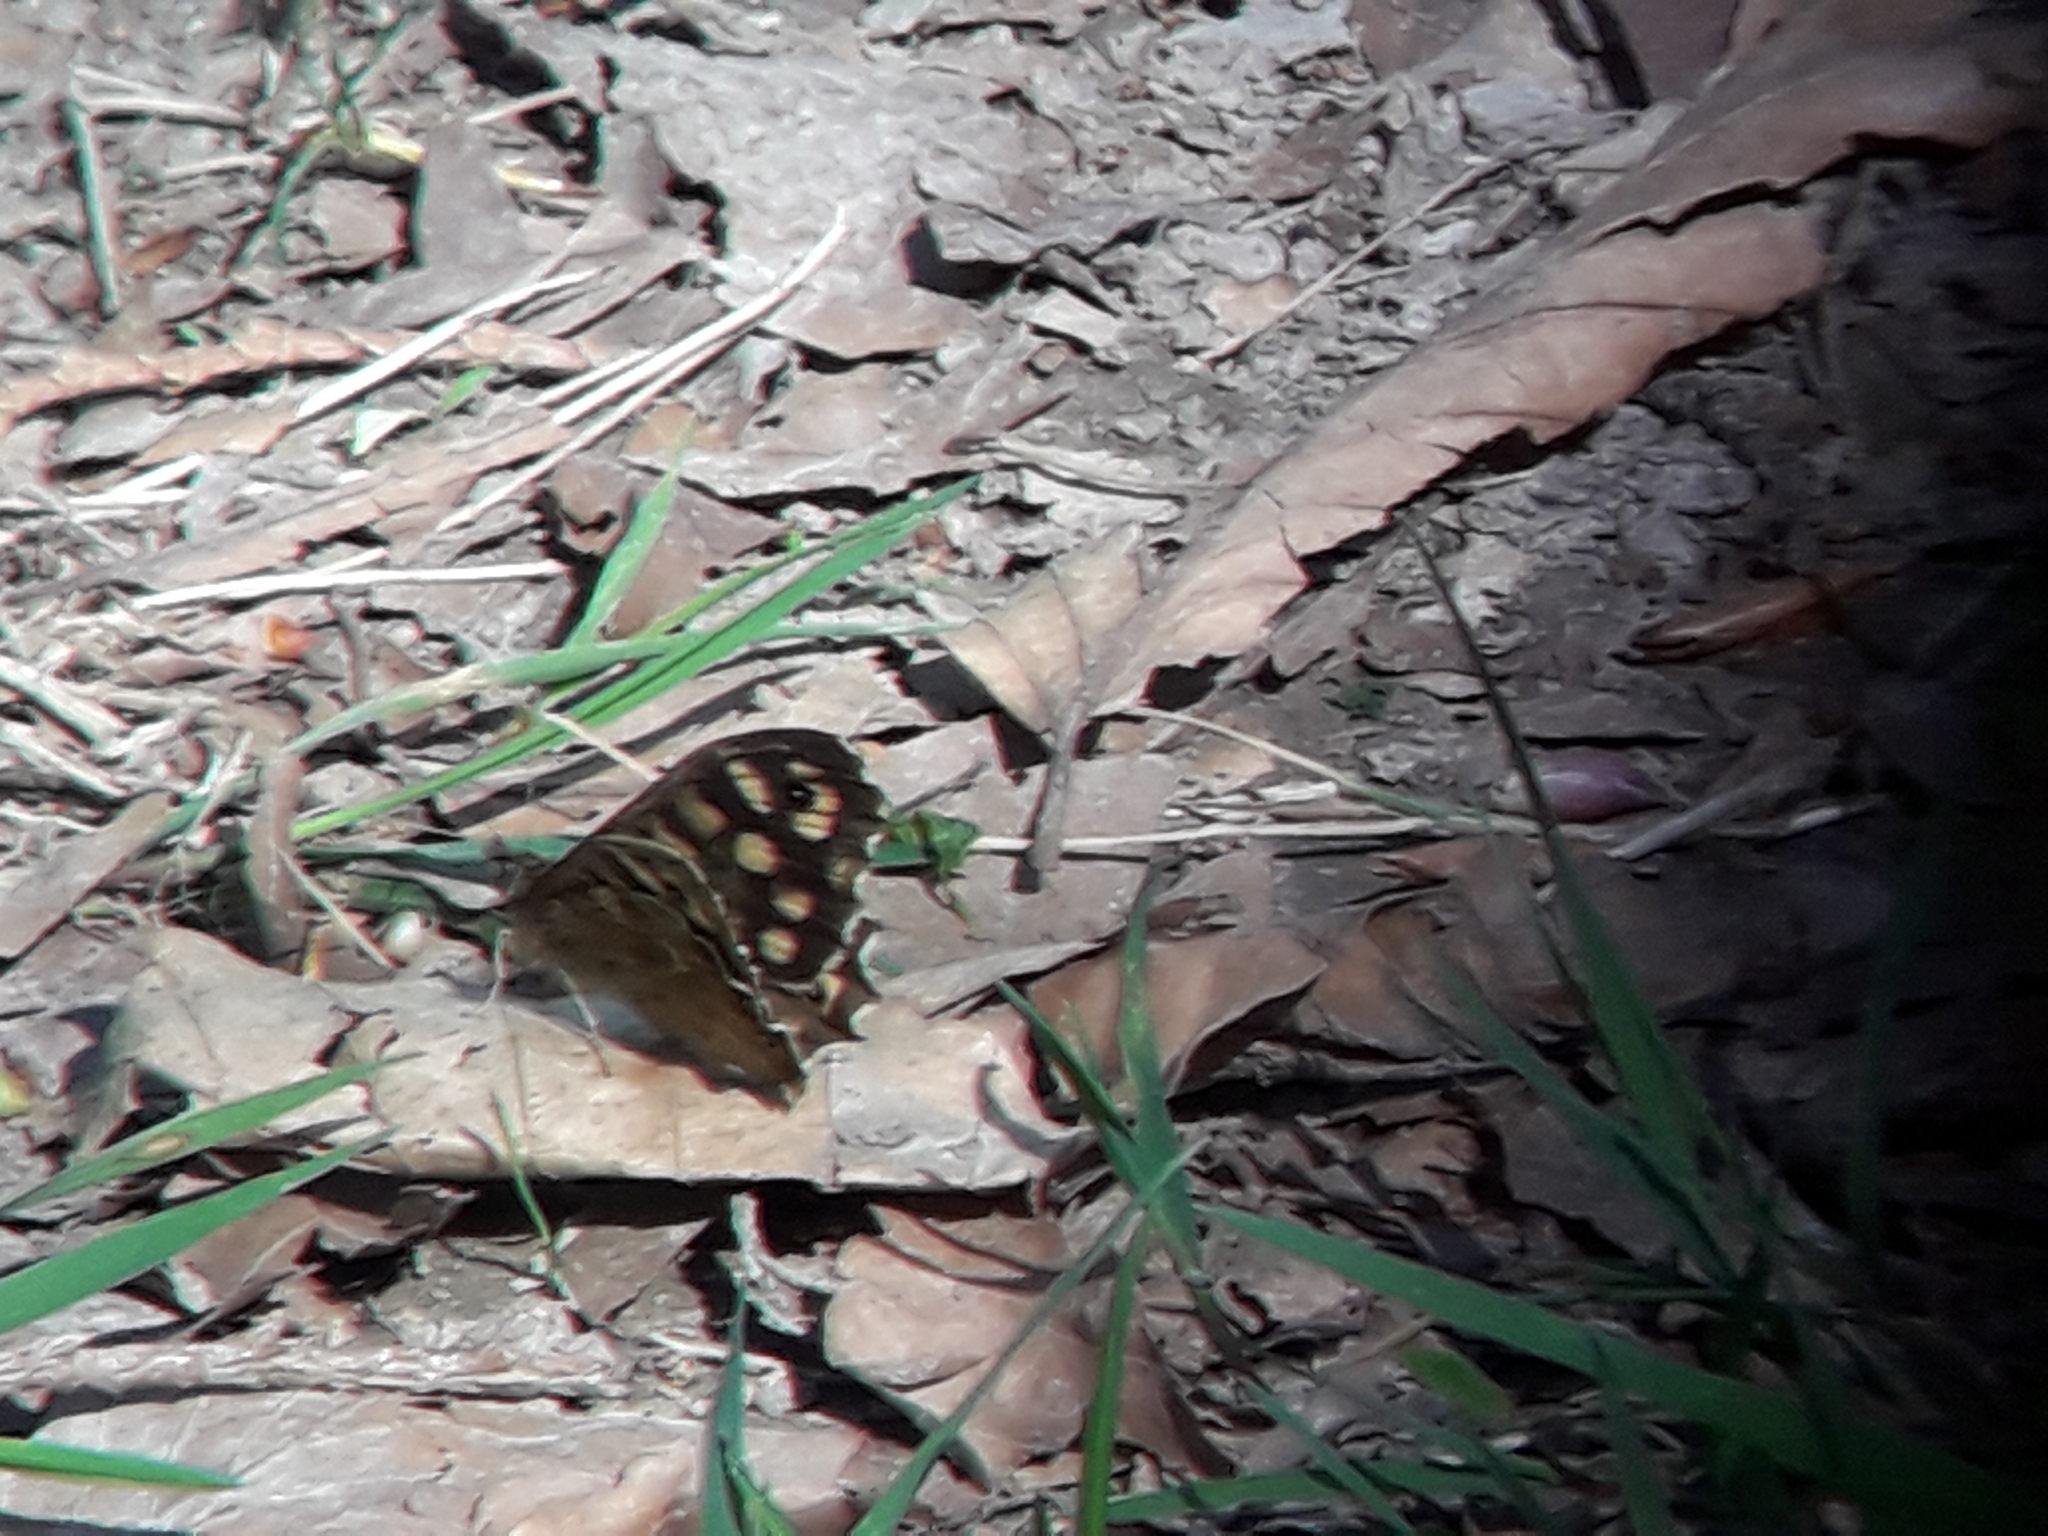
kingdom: Animalia
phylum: Arthropoda
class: Insecta
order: Lepidoptera
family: Nymphalidae
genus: Pararge
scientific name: Pararge aegeria
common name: Speckled wood
